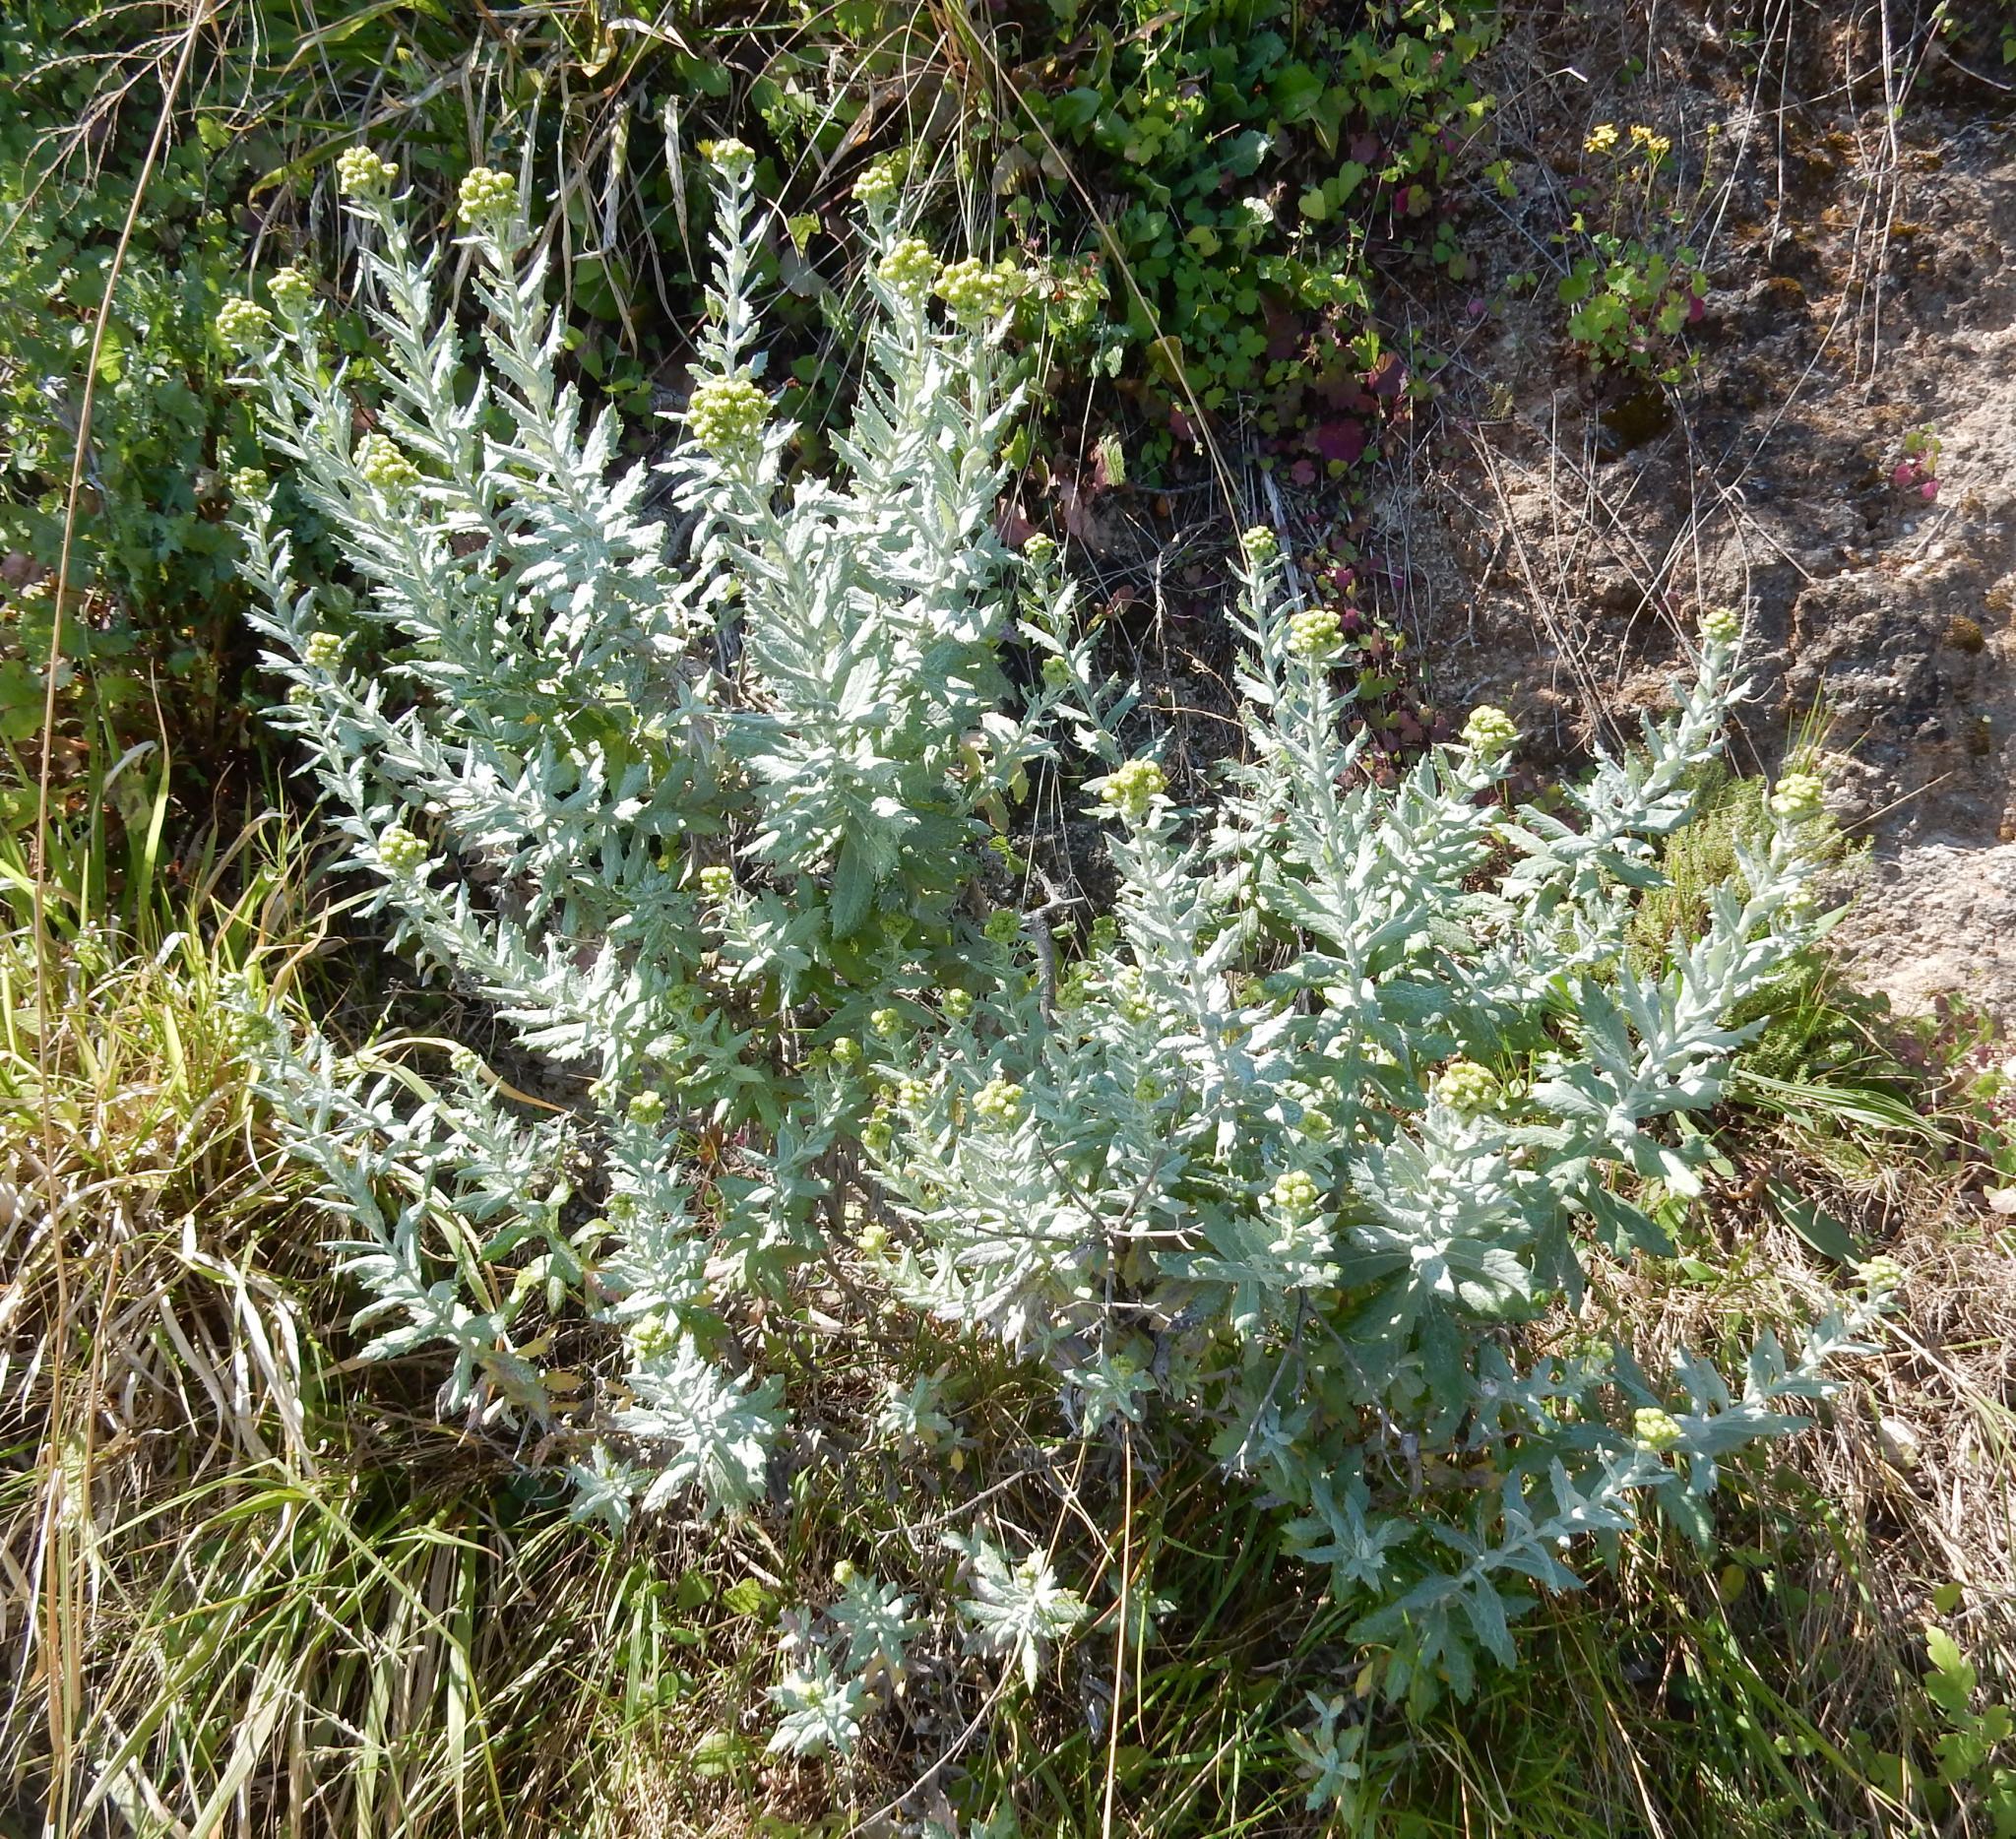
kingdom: Plantae
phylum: Tracheophyta
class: Magnoliopsida
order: Asterales
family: Asteraceae
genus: Senecio
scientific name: Senecio pterophorus
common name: Shoddy ragwort
